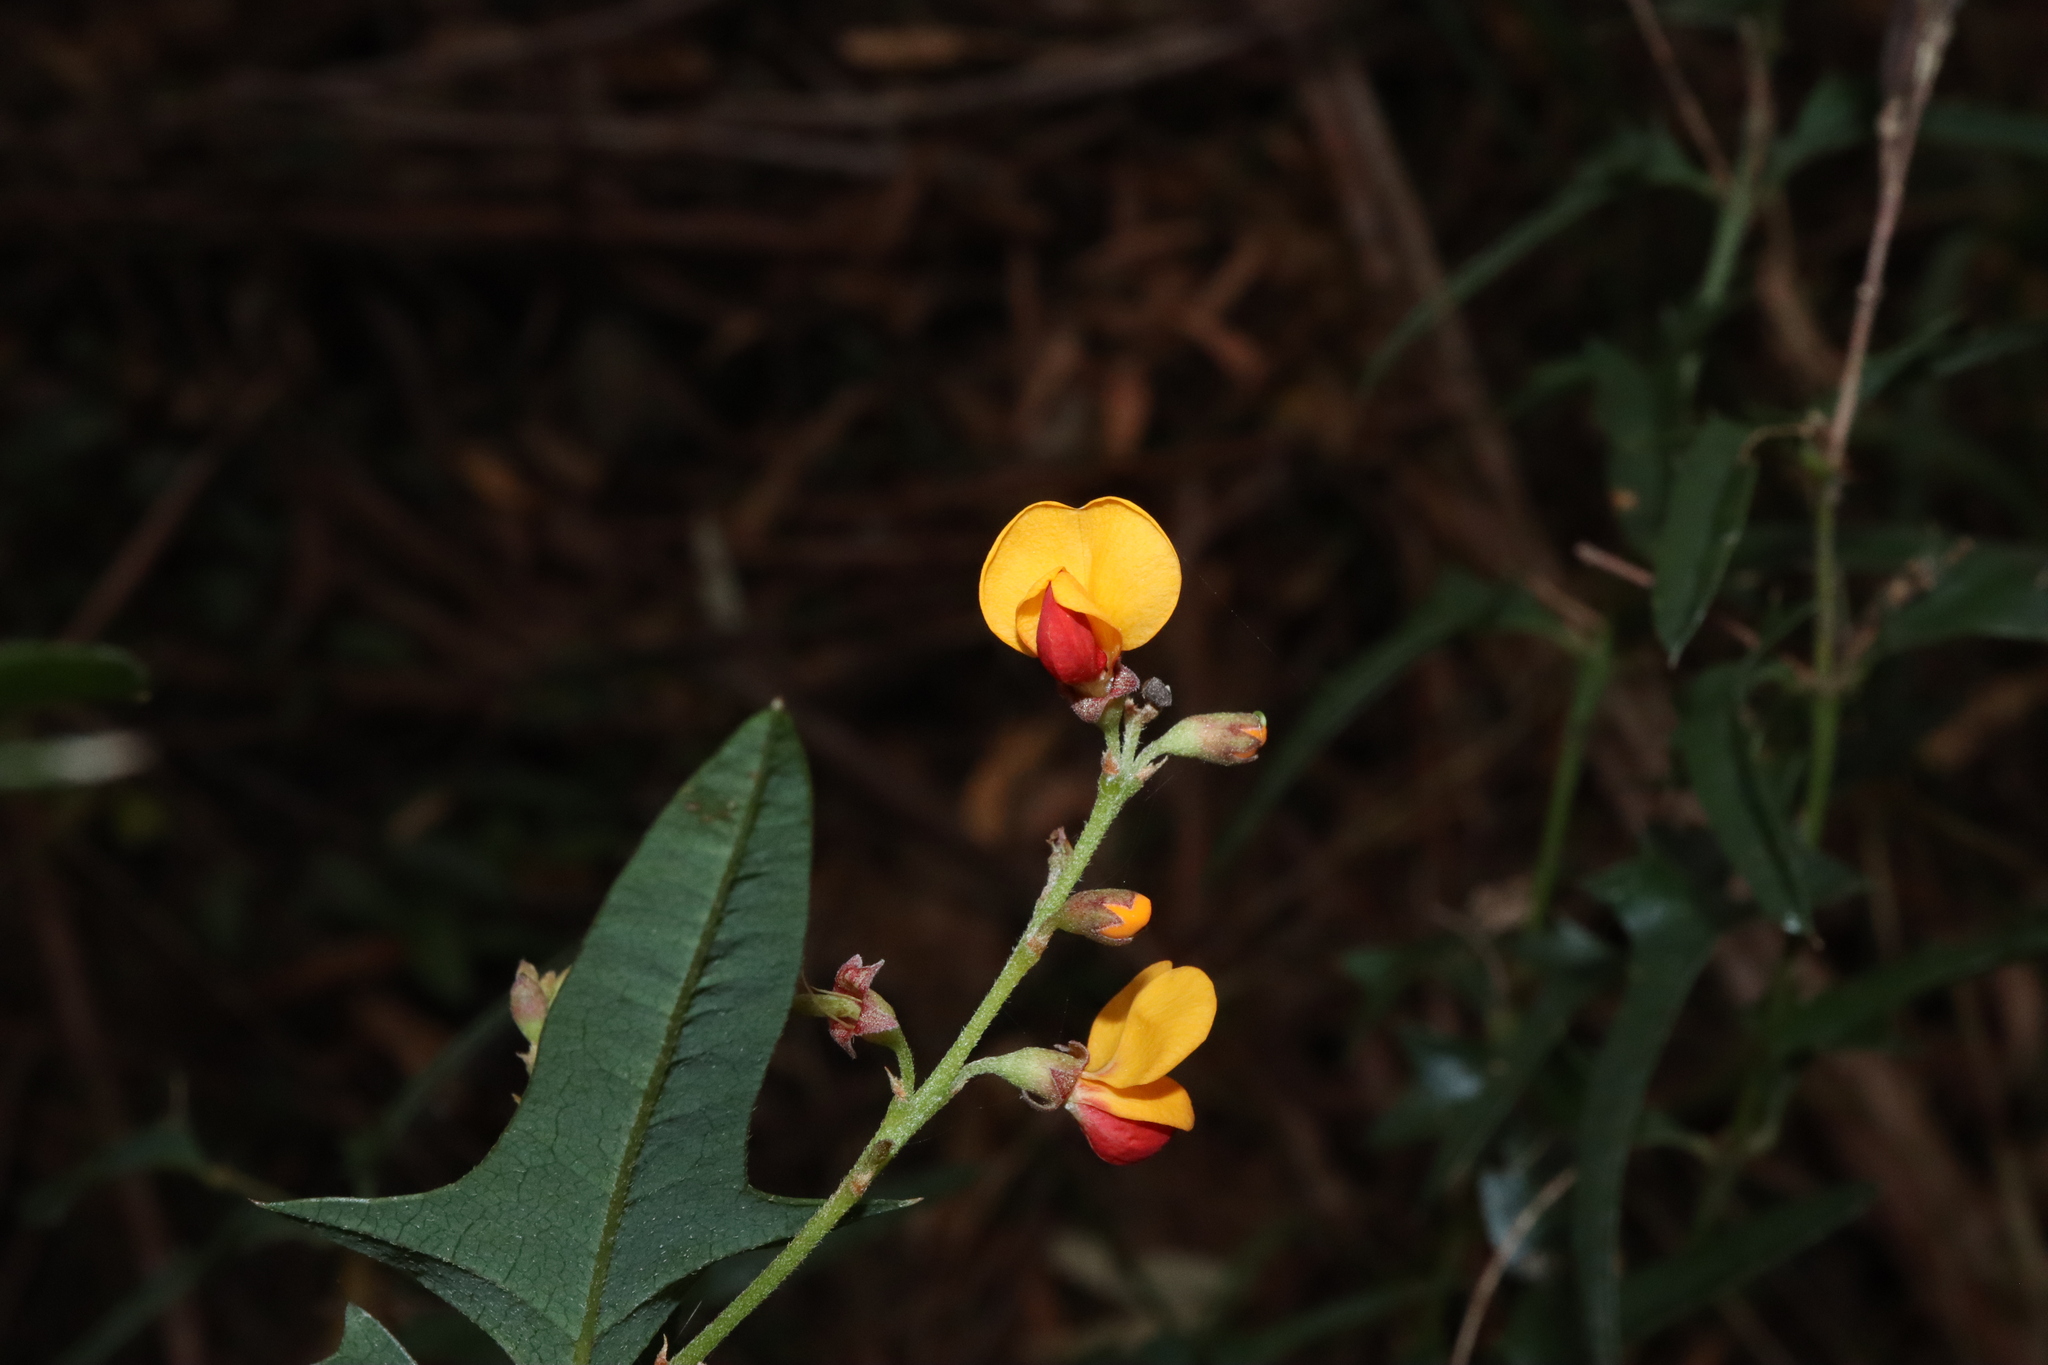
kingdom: Plantae
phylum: Tracheophyta
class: Magnoliopsida
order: Fabales
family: Fabaceae
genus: Podolobium
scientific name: Podolobium ilicifolium
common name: Native holly
